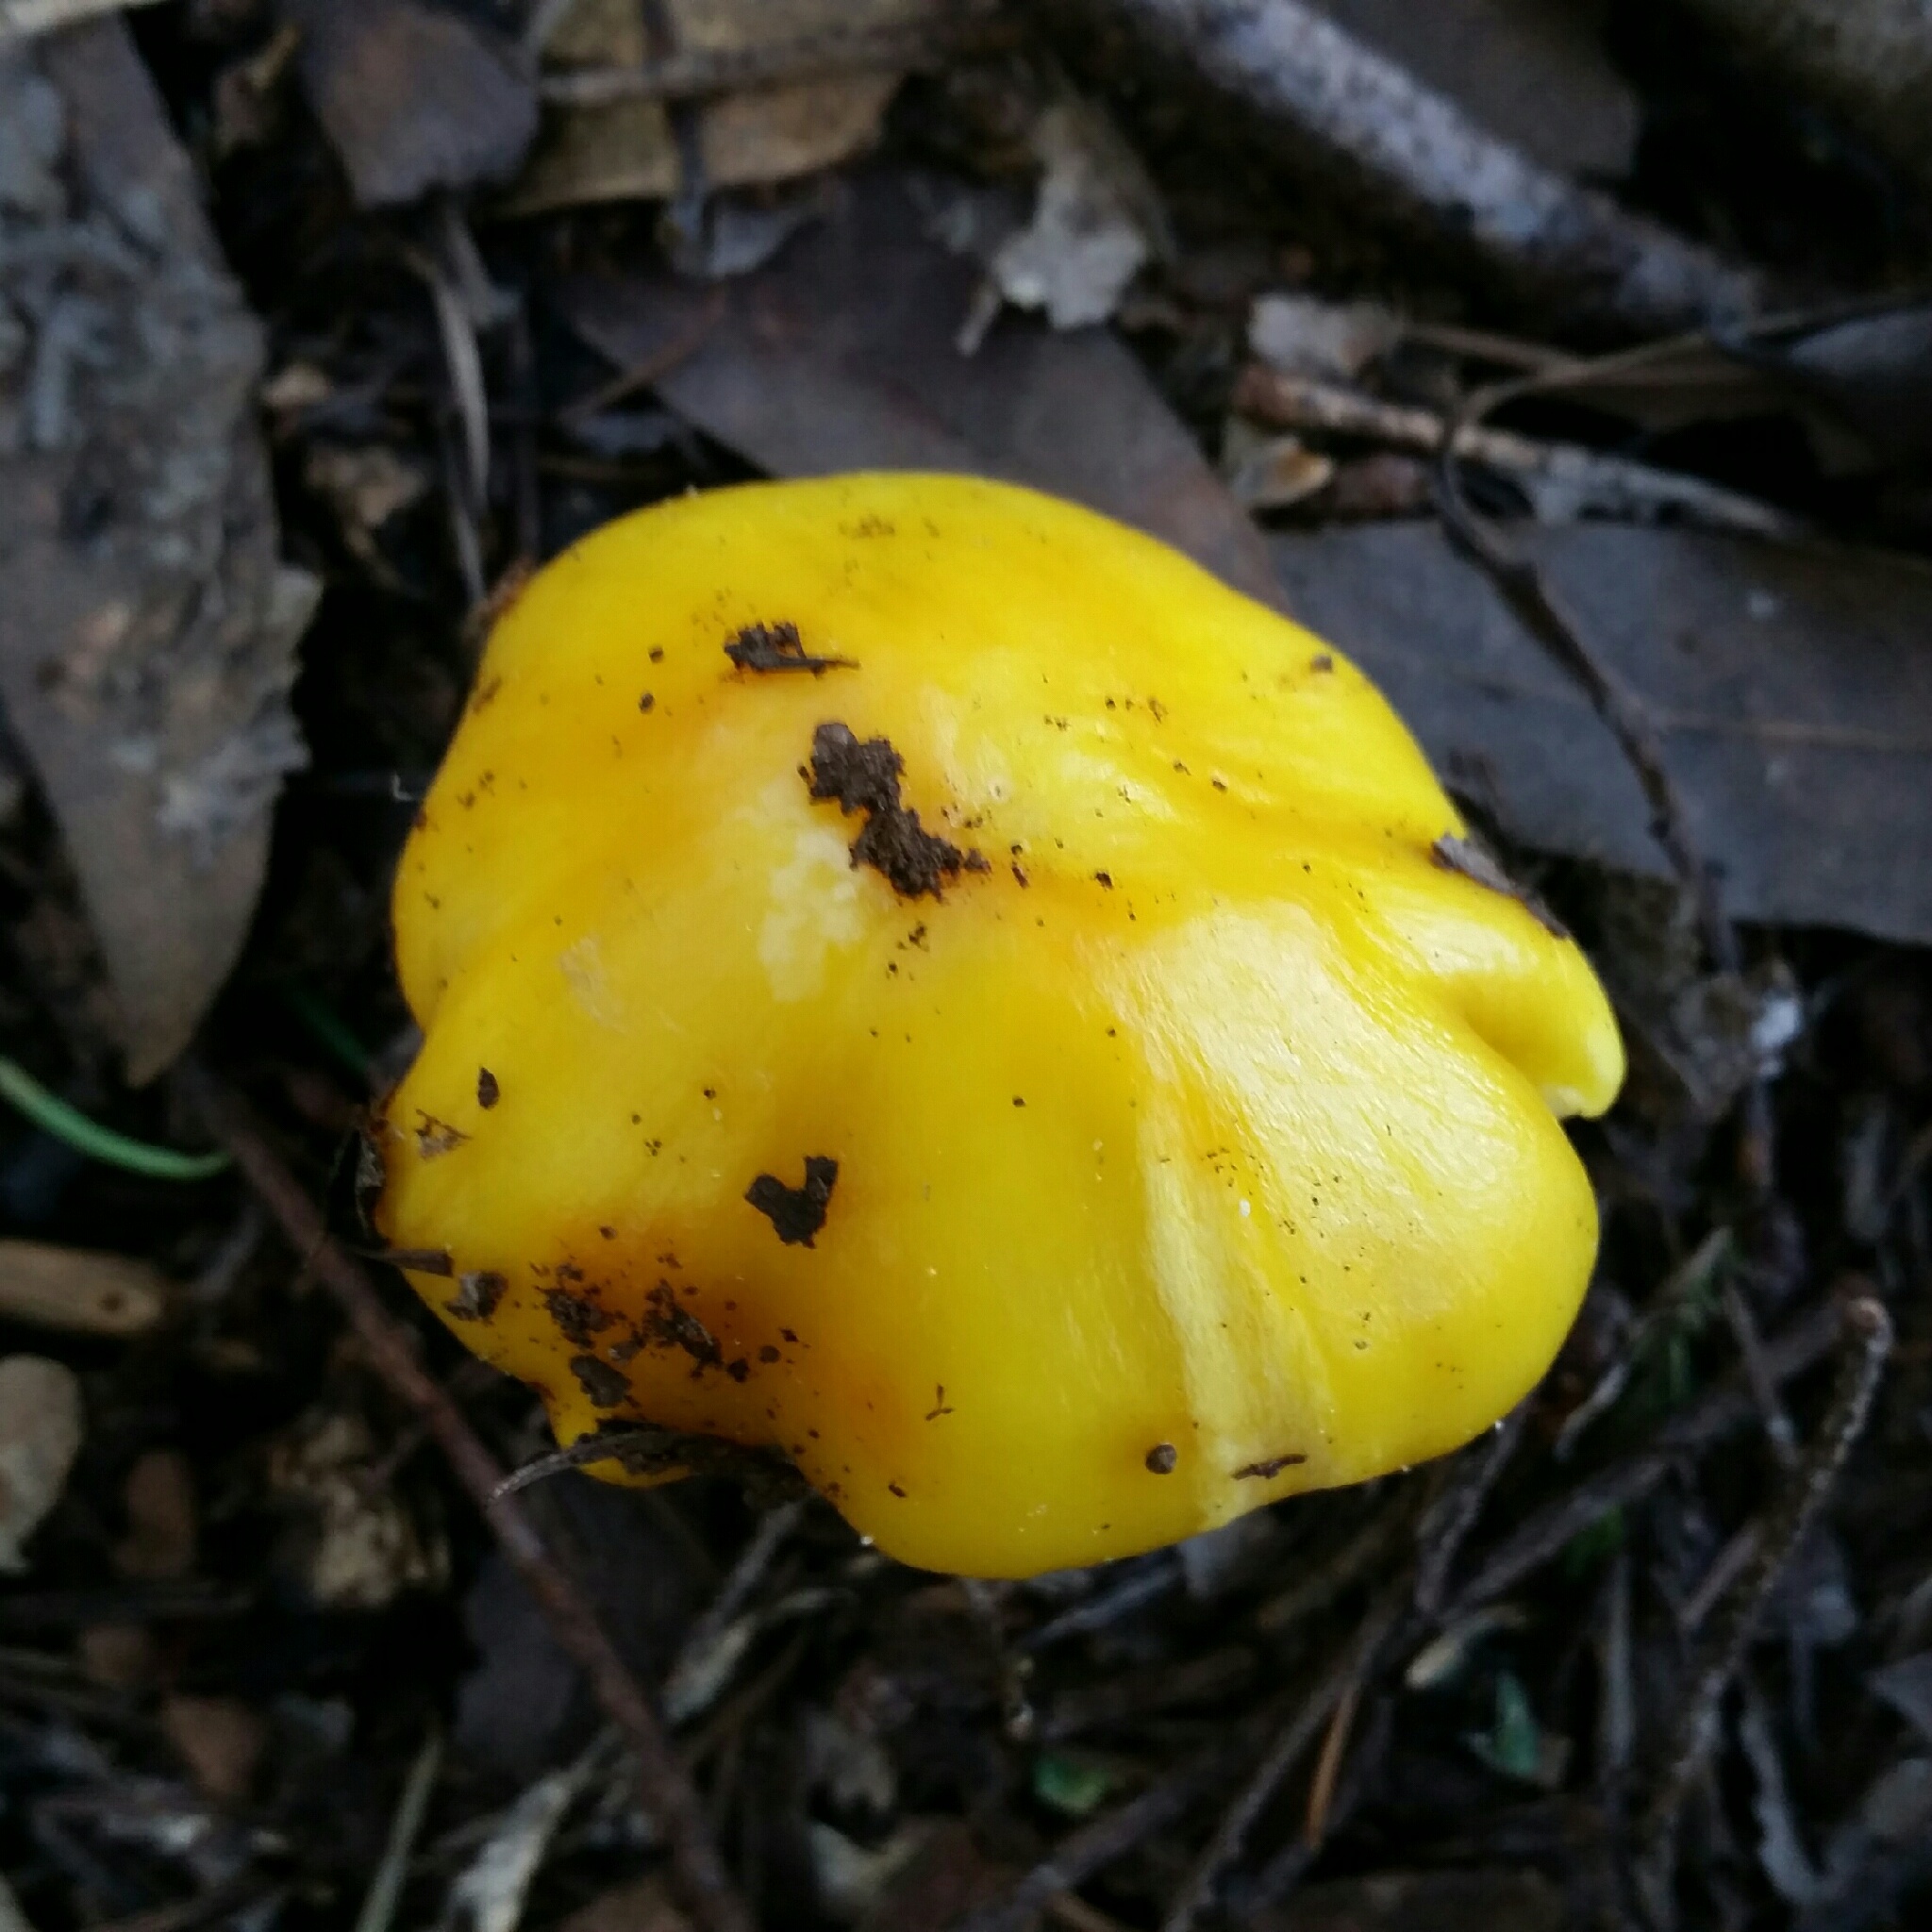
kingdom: Fungi
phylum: Basidiomycota
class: Agaricomycetes
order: Agaricales
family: Hygrophoraceae
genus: Hygrocybe
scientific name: Hygrocybe flavescens
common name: Golden waxy cap
